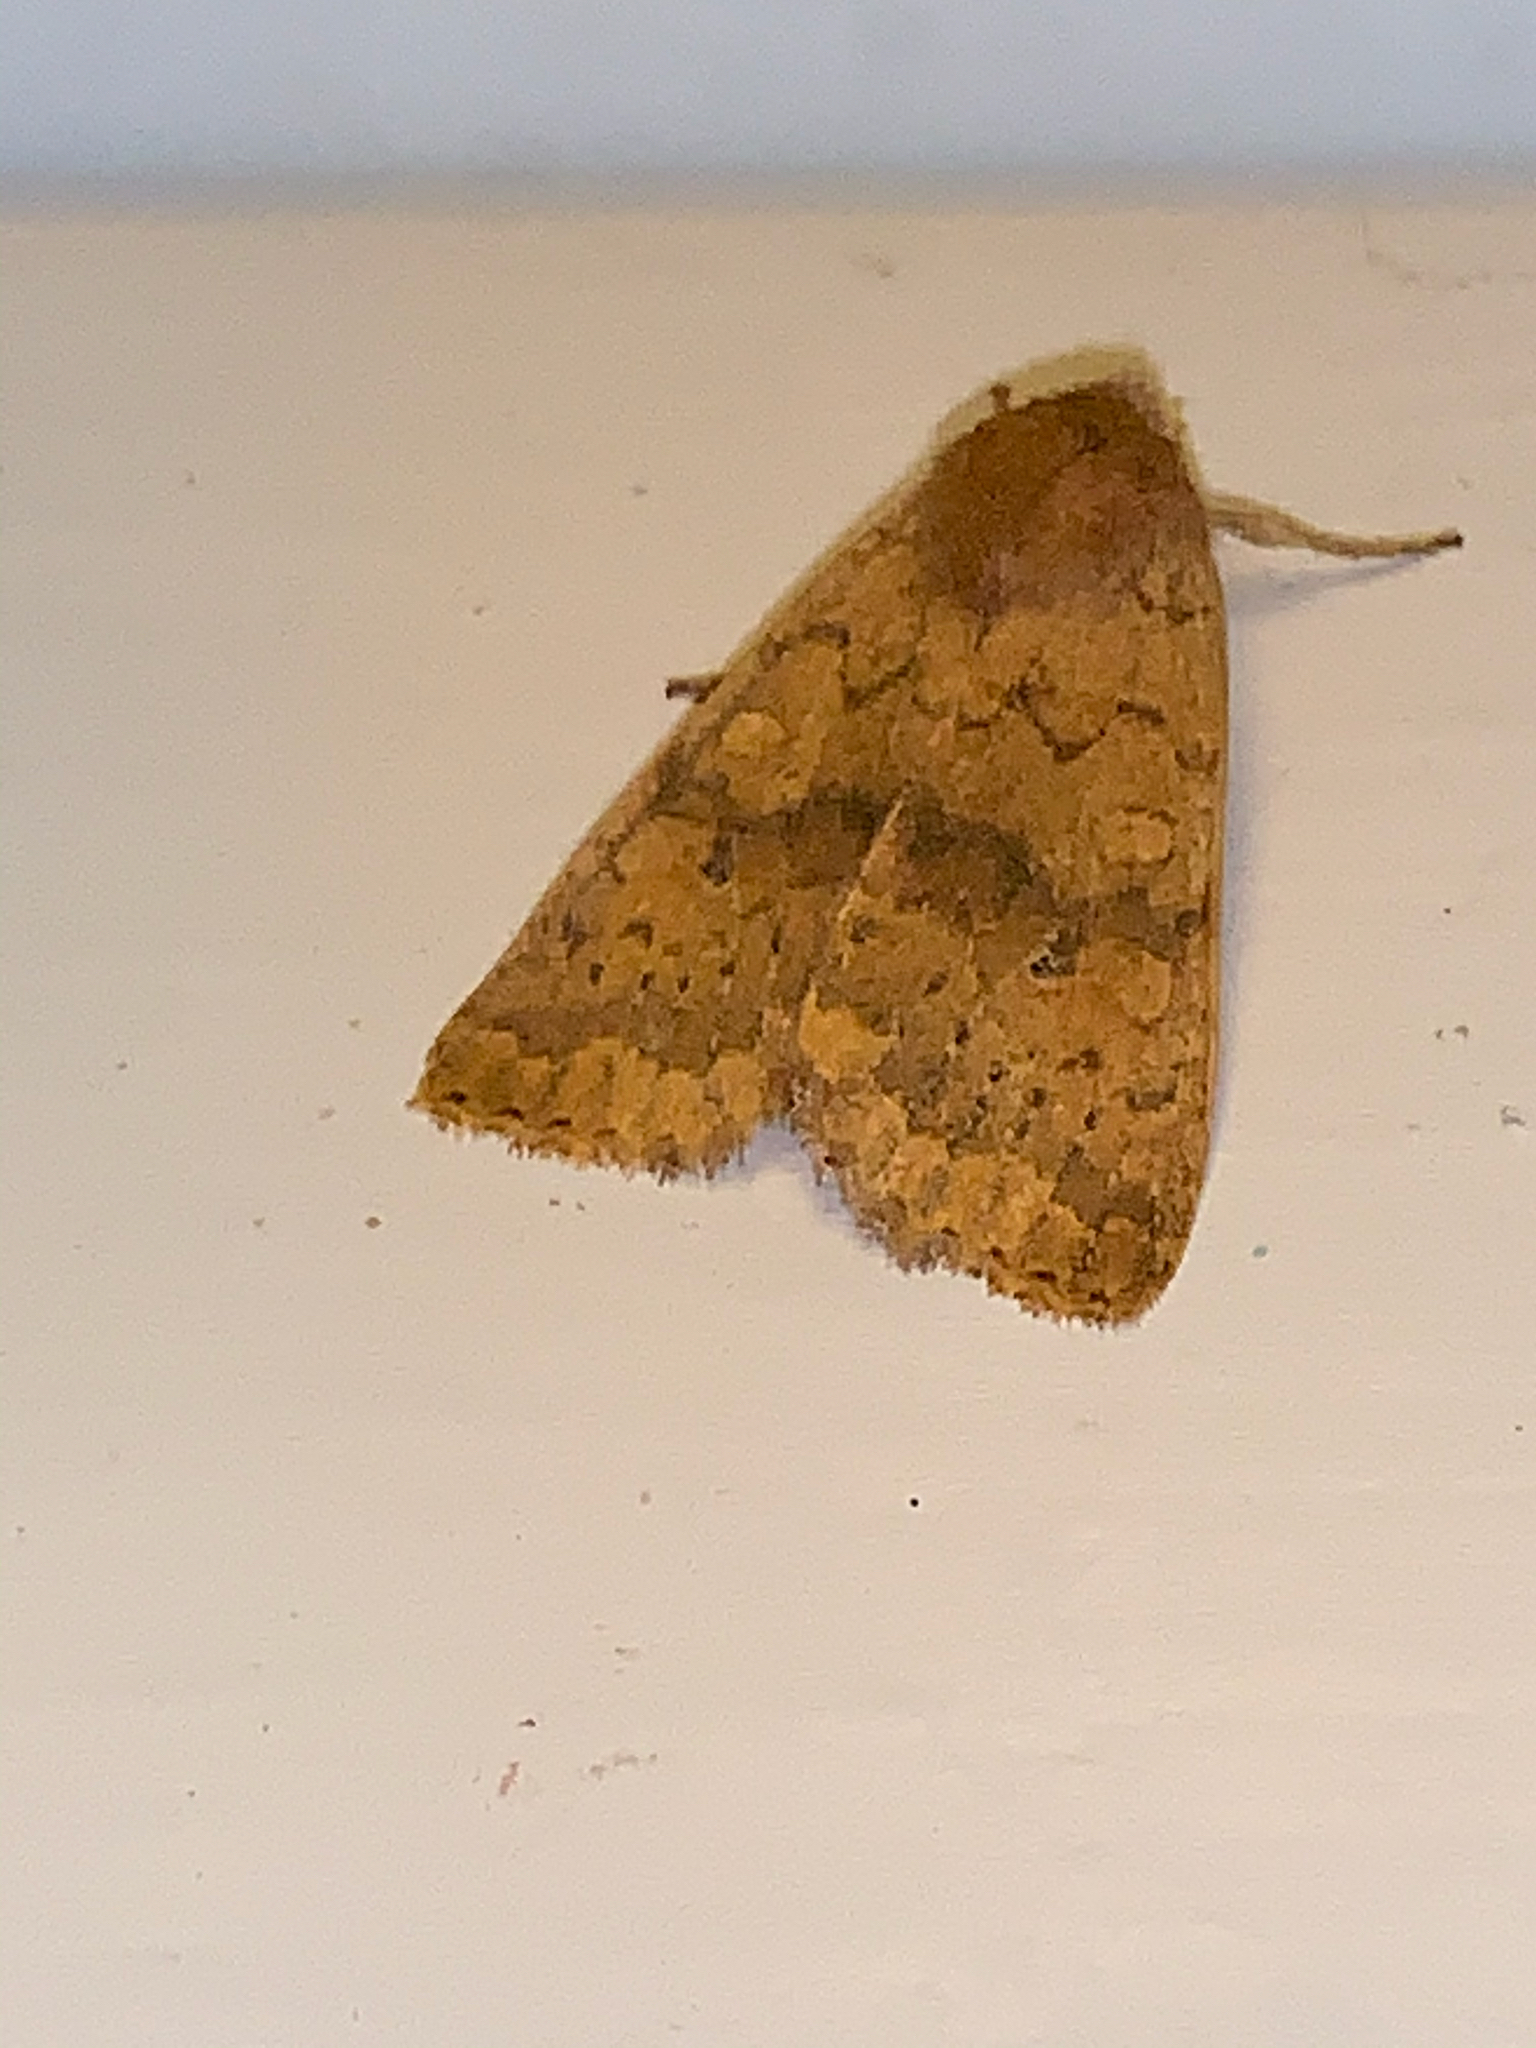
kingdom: Animalia
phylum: Arthropoda
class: Insecta
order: Lepidoptera
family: Noctuidae
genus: Agrochola
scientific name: Agrochola bicolorago
